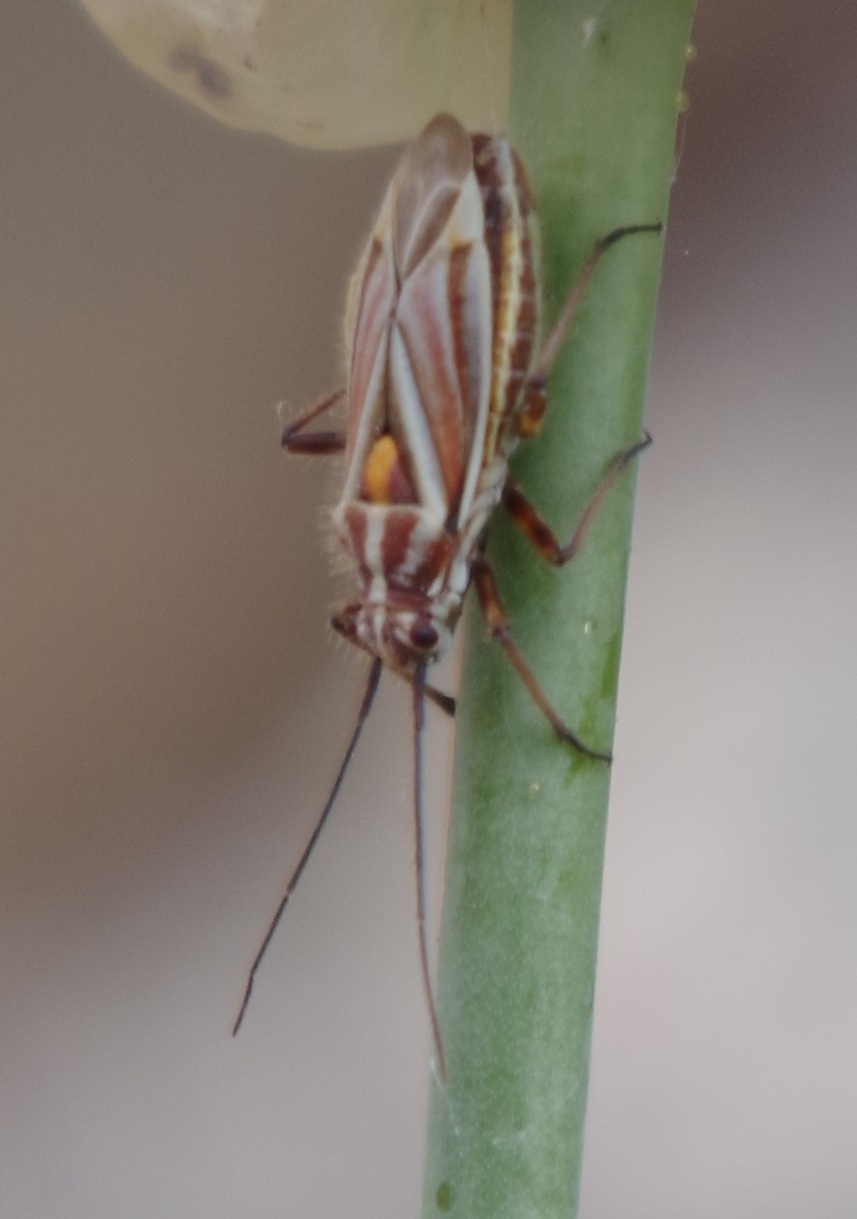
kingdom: Animalia
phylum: Arthropoda
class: Insecta
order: Hemiptera
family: Miridae
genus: Horistus
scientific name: Horistus orientalis
